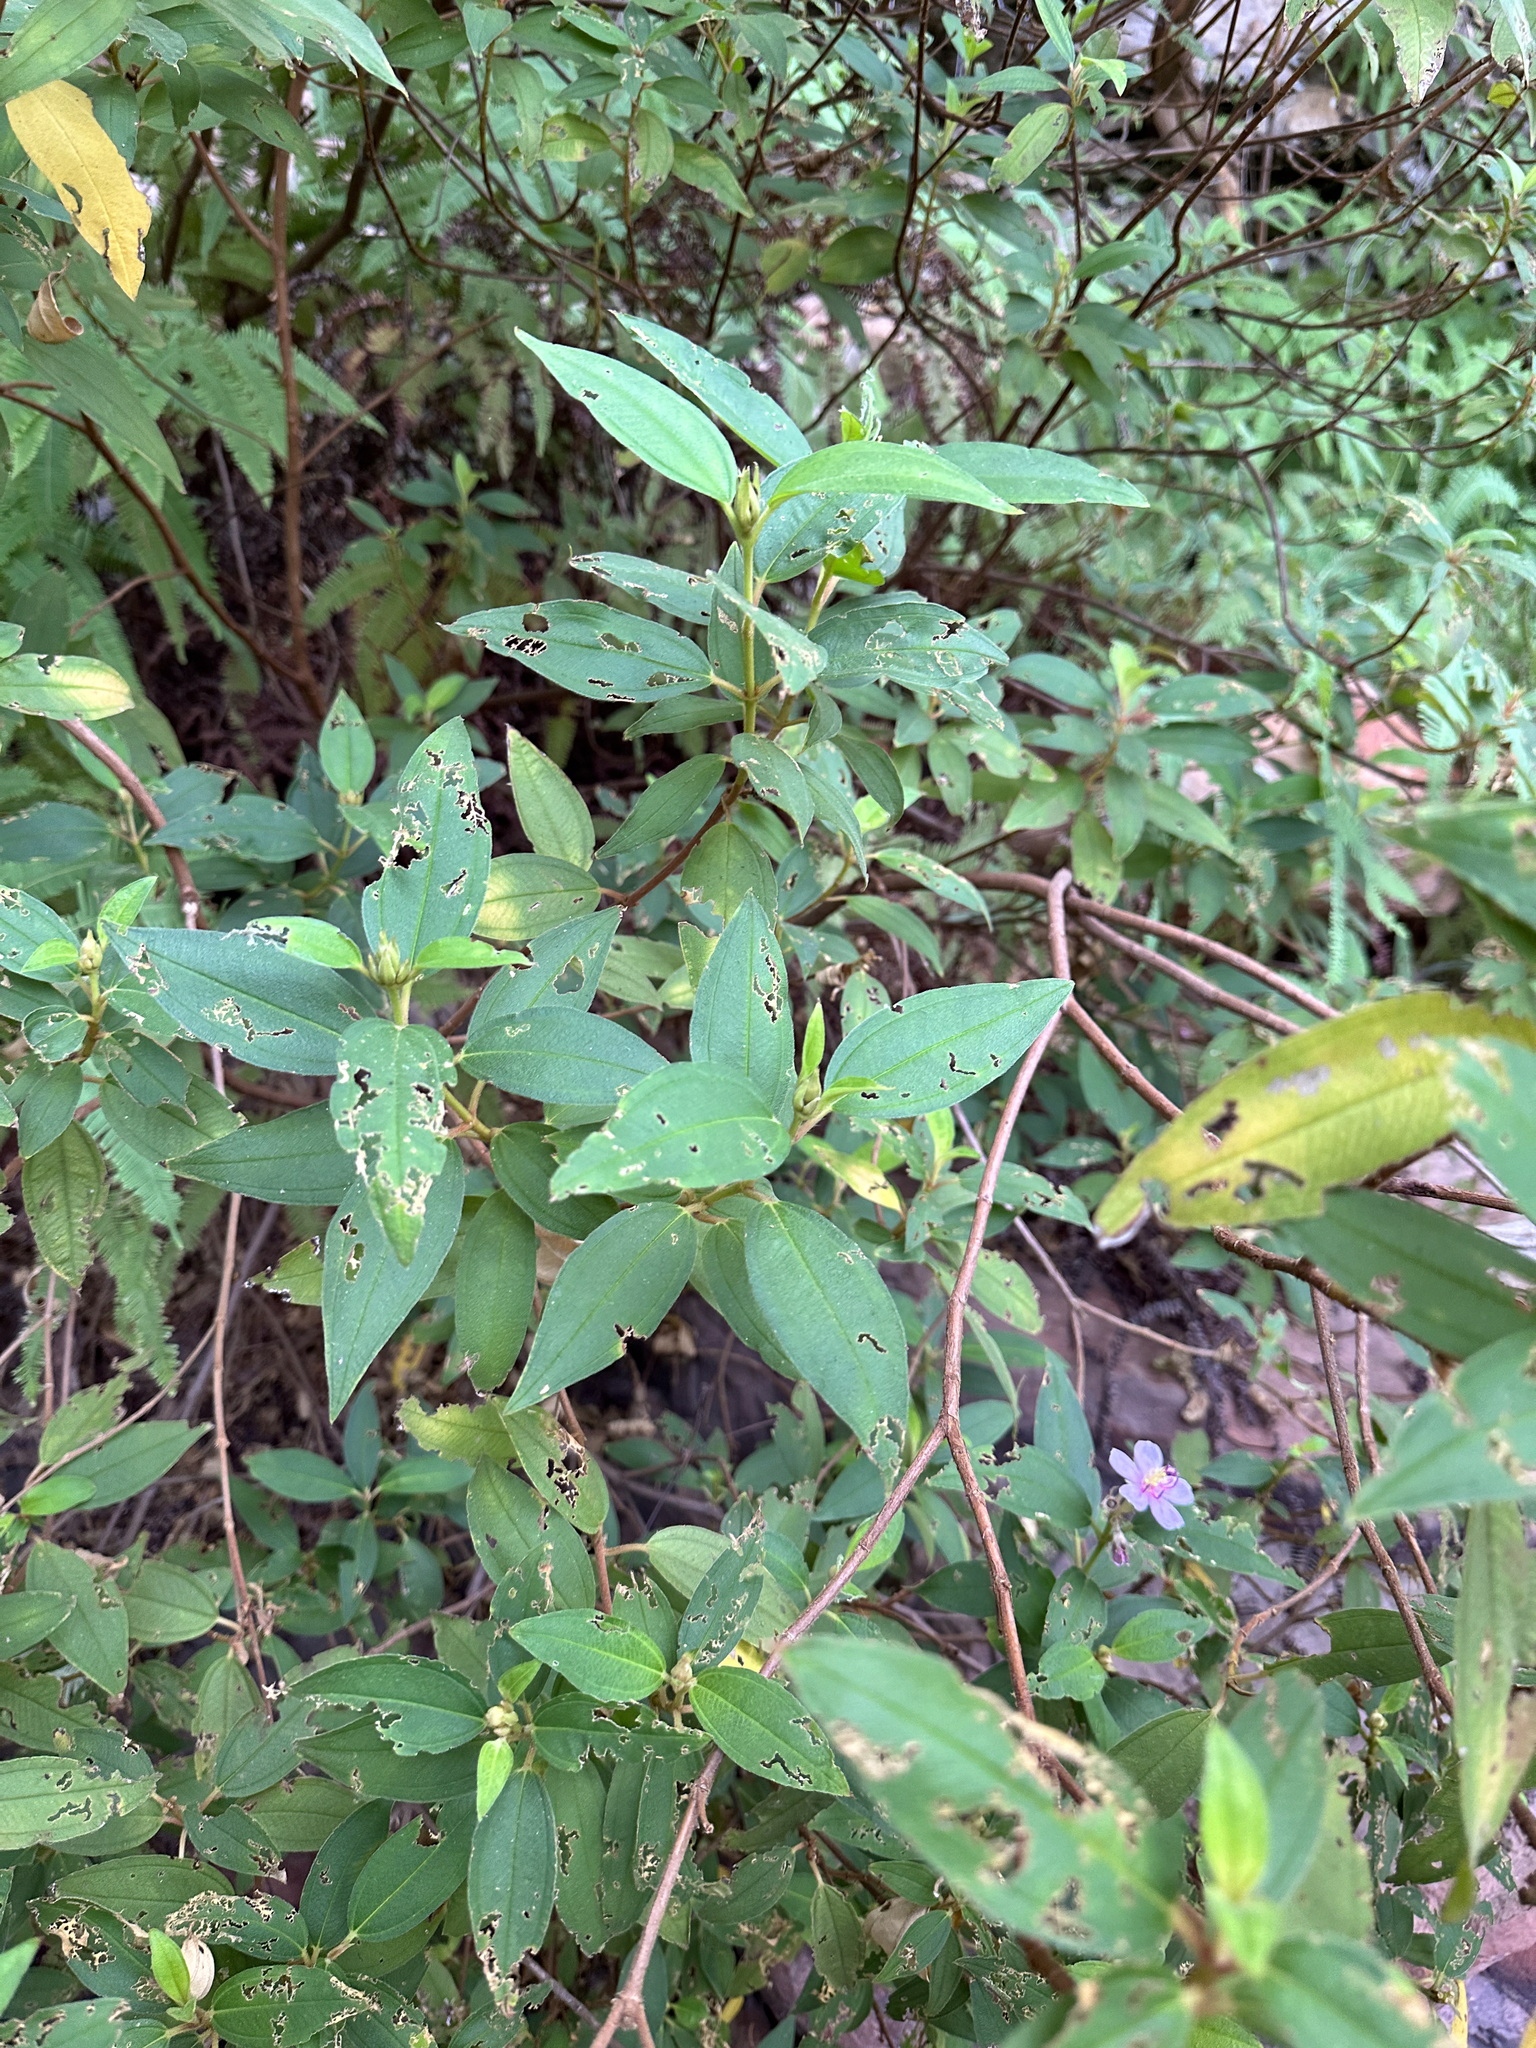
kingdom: Plantae
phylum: Tracheophyta
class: Magnoliopsida
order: Myrtales
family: Melastomataceae
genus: Melastoma
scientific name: Melastoma malabathricum
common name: Indian-rhododendron
